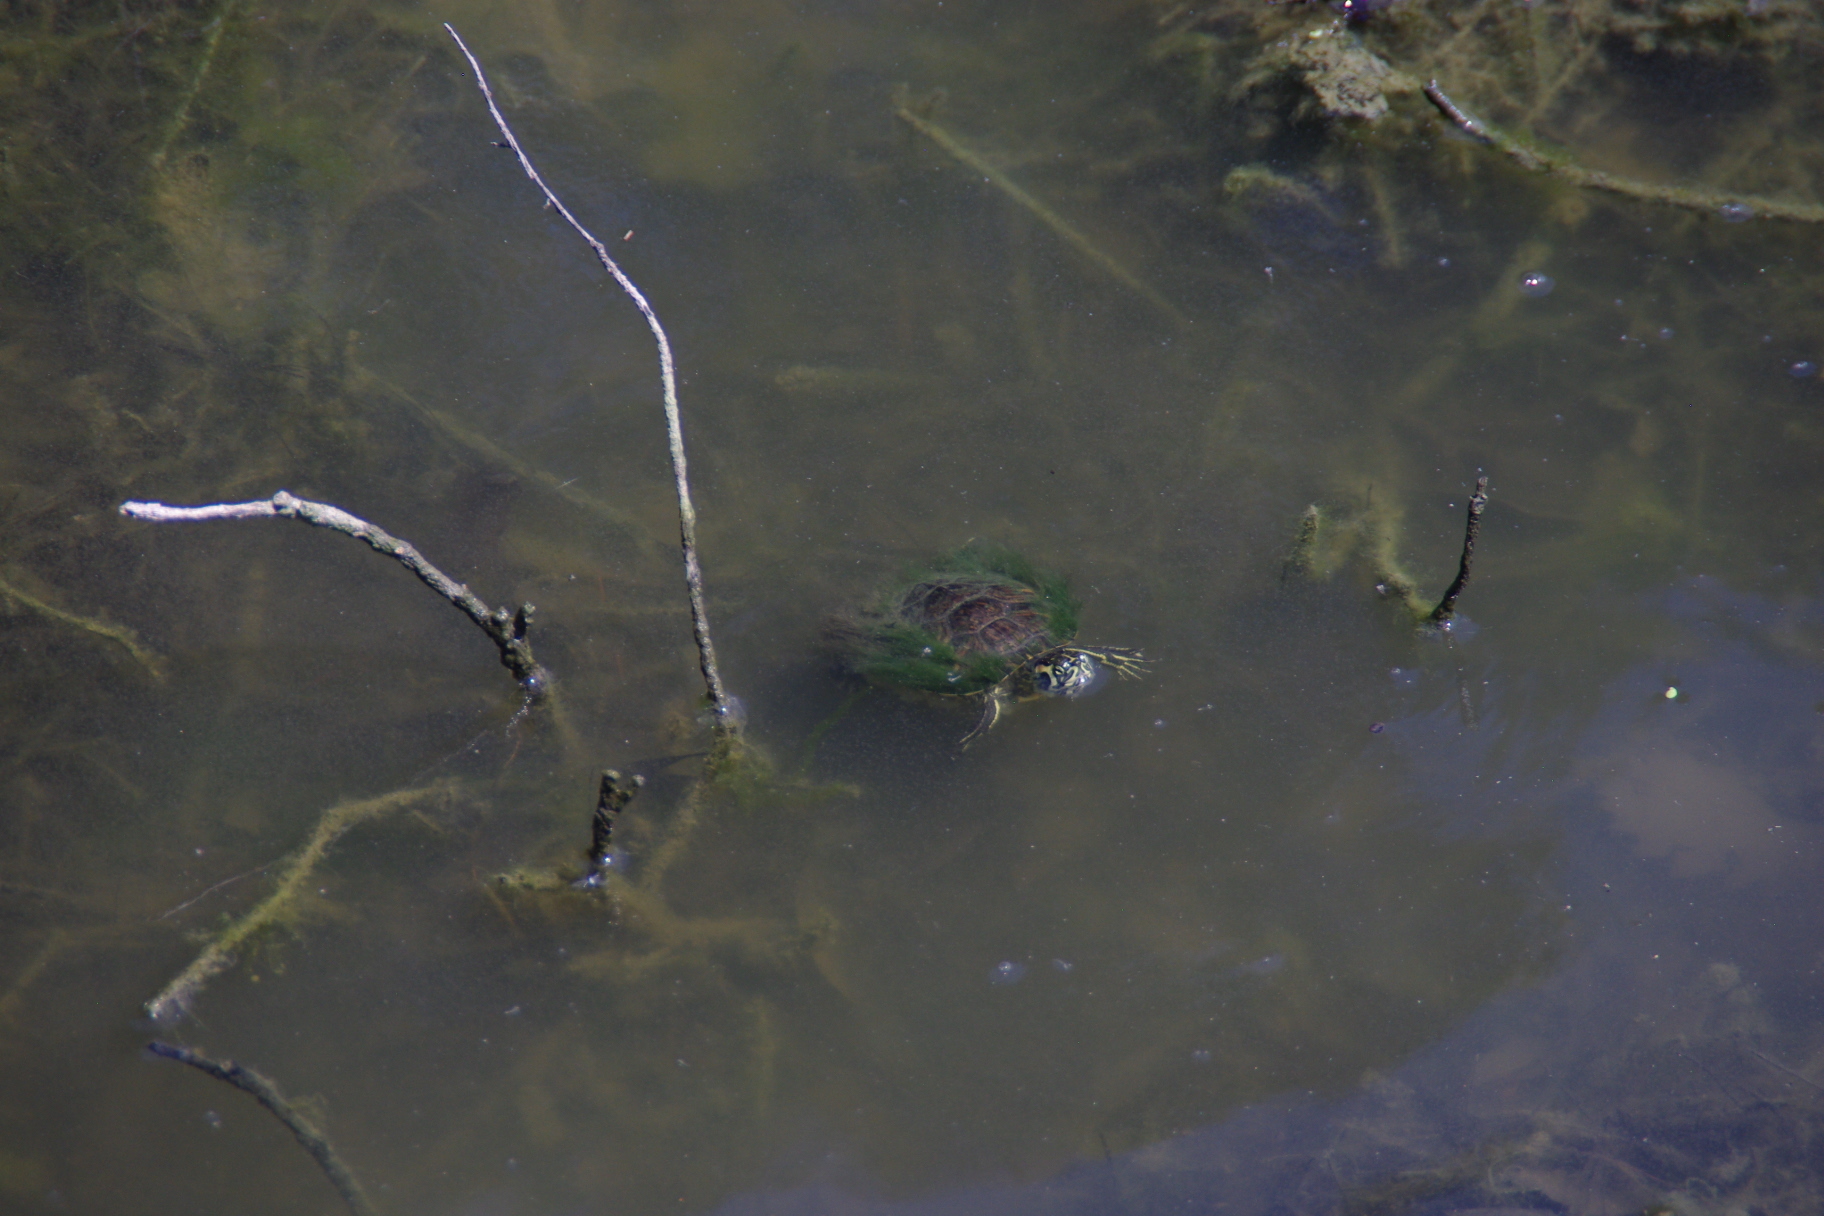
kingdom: Animalia
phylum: Chordata
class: Testudines
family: Emydidae
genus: Trachemys
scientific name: Trachemys scripta
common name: Slider
